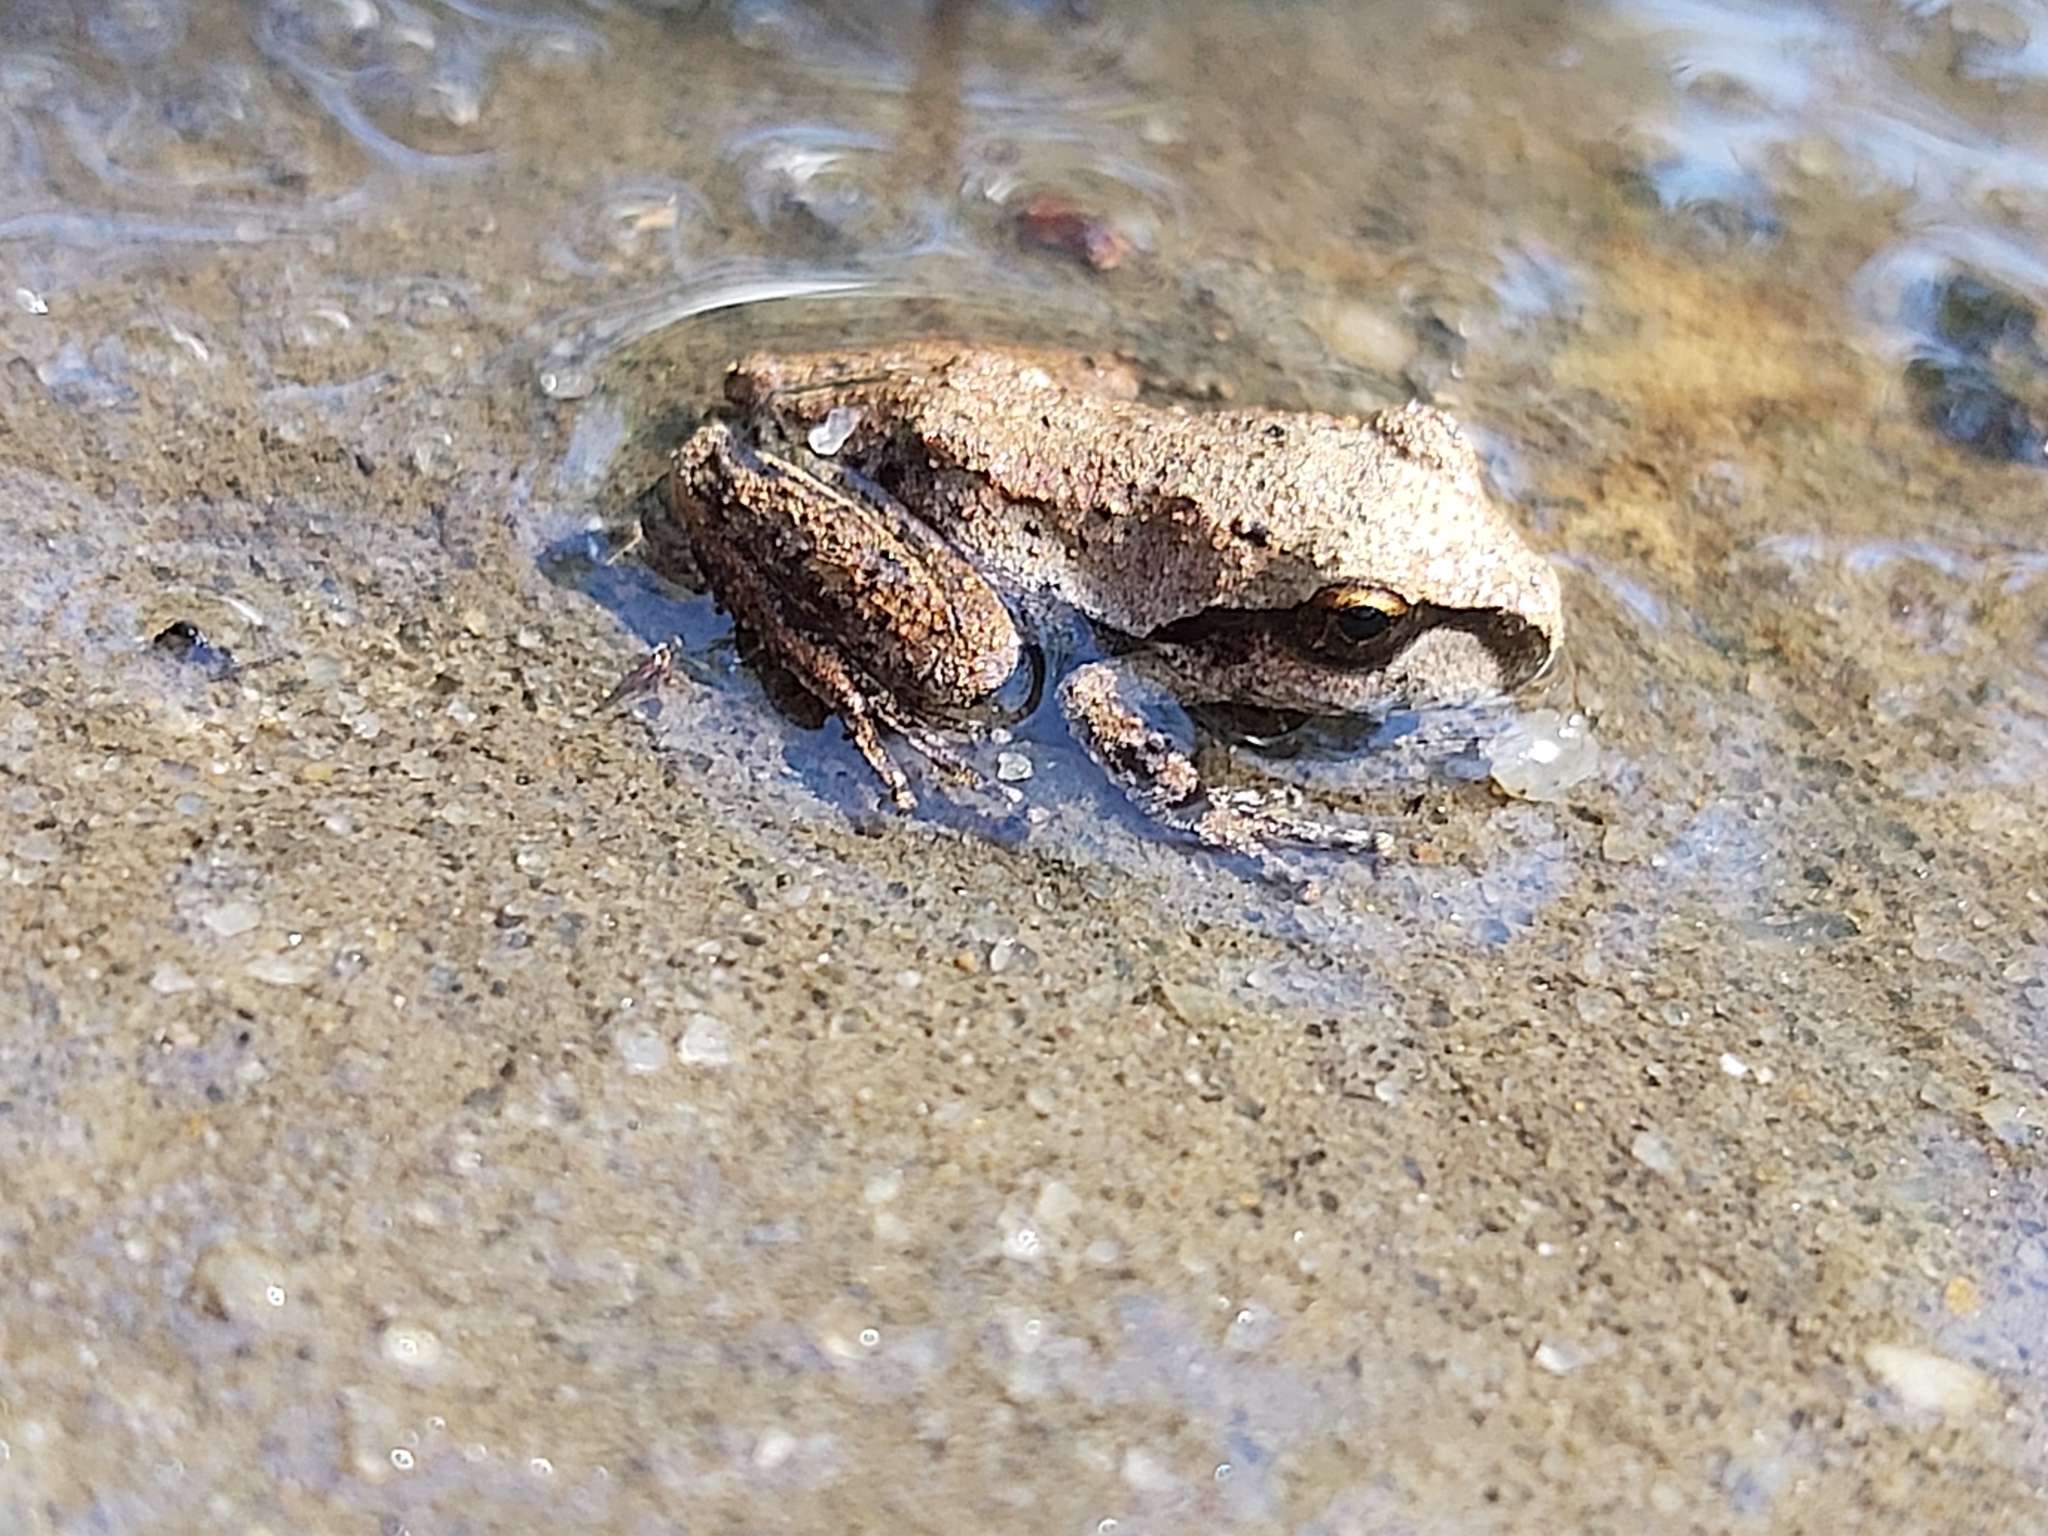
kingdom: Animalia
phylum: Chordata
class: Amphibia
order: Anura
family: Pelodryadidae
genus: Ranoidea
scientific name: Ranoidea lesueurii
